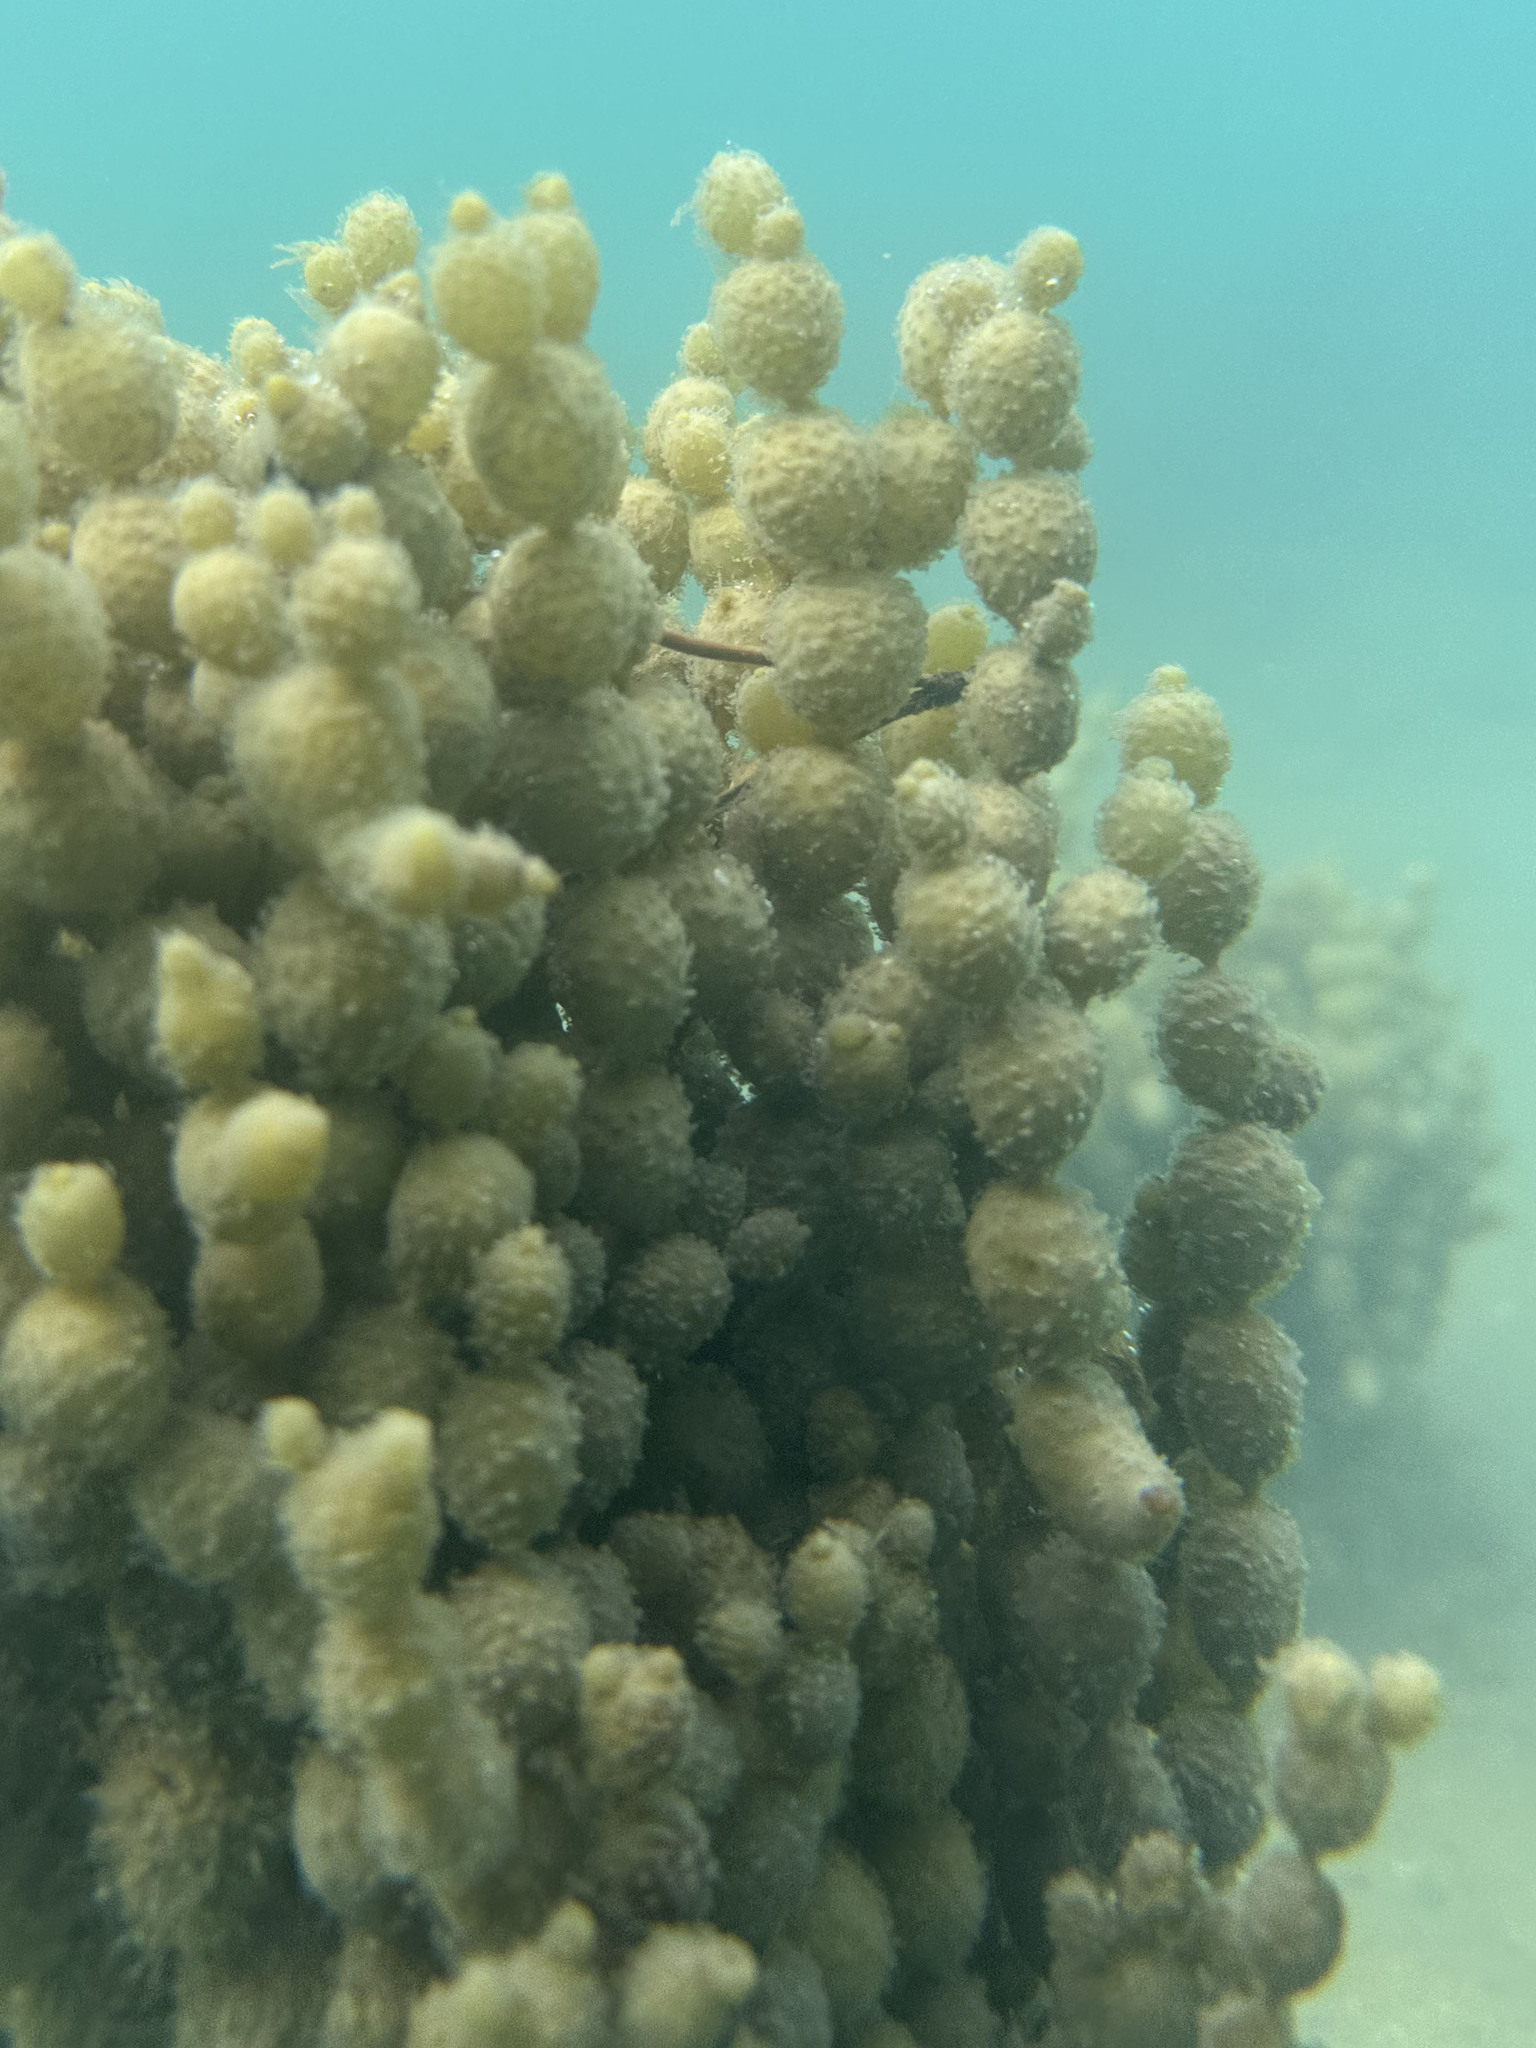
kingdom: Chromista
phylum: Ochrophyta
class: Phaeophyceae
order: Fucales
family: Hormosiraceae
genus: Hormosira
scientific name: Hormosira banksii
